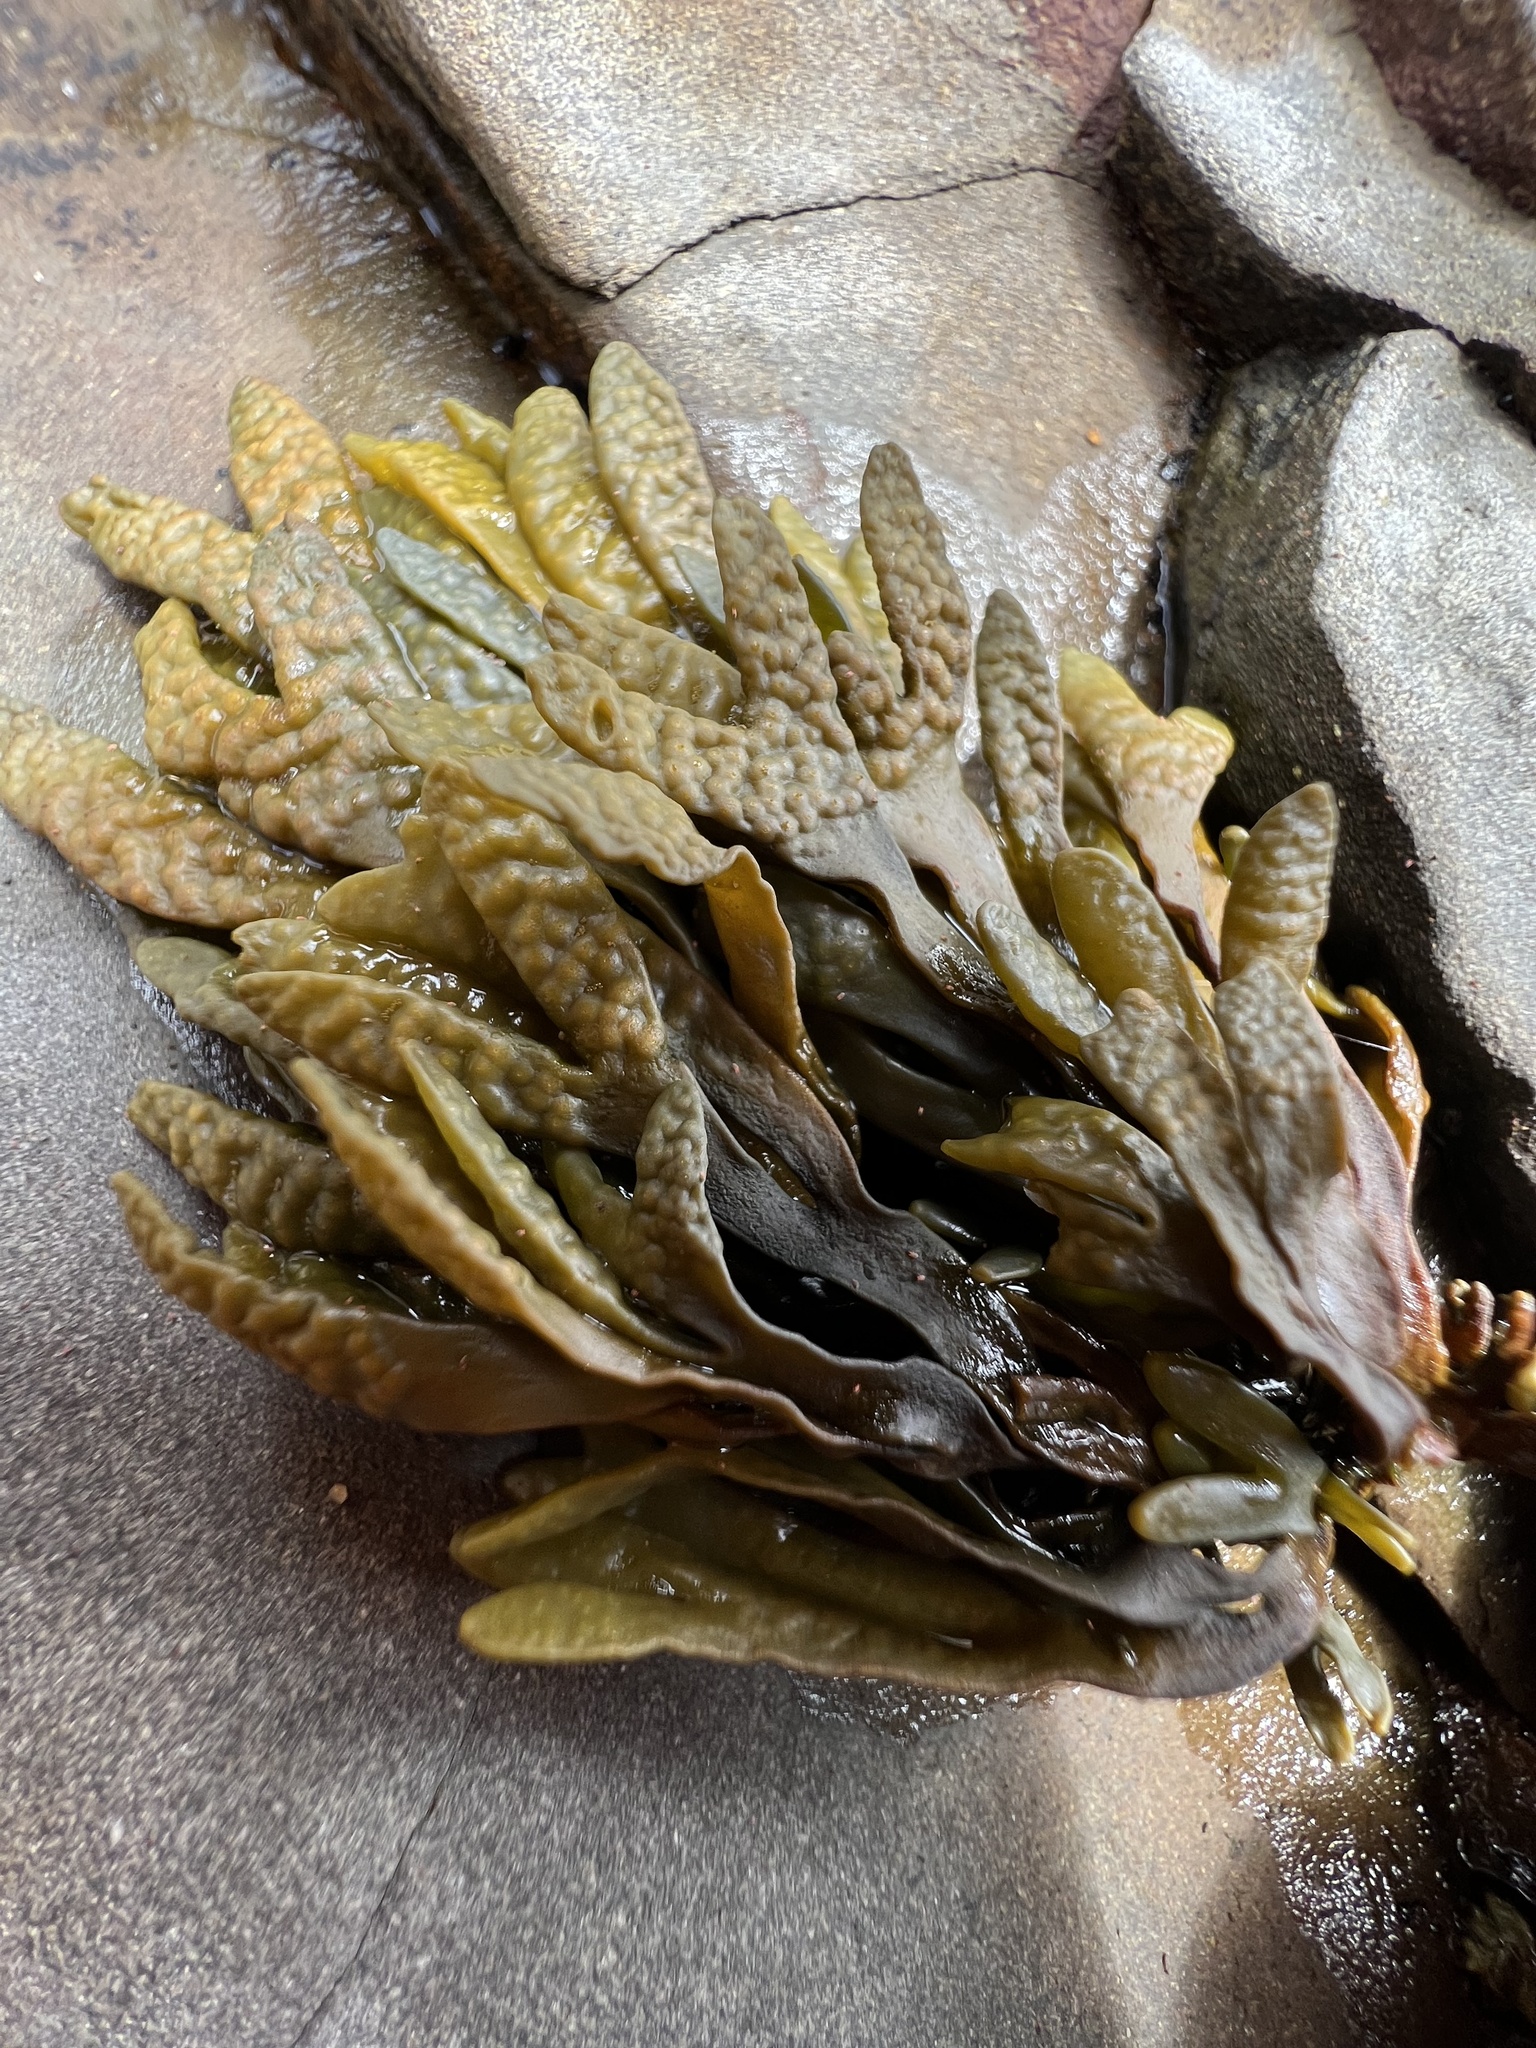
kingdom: Chromista
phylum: Ochrophyta
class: Phaeophyceae
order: Fucales
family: Fucaceae
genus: Pelvetiopsis
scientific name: Pelvetiopsis limitata
